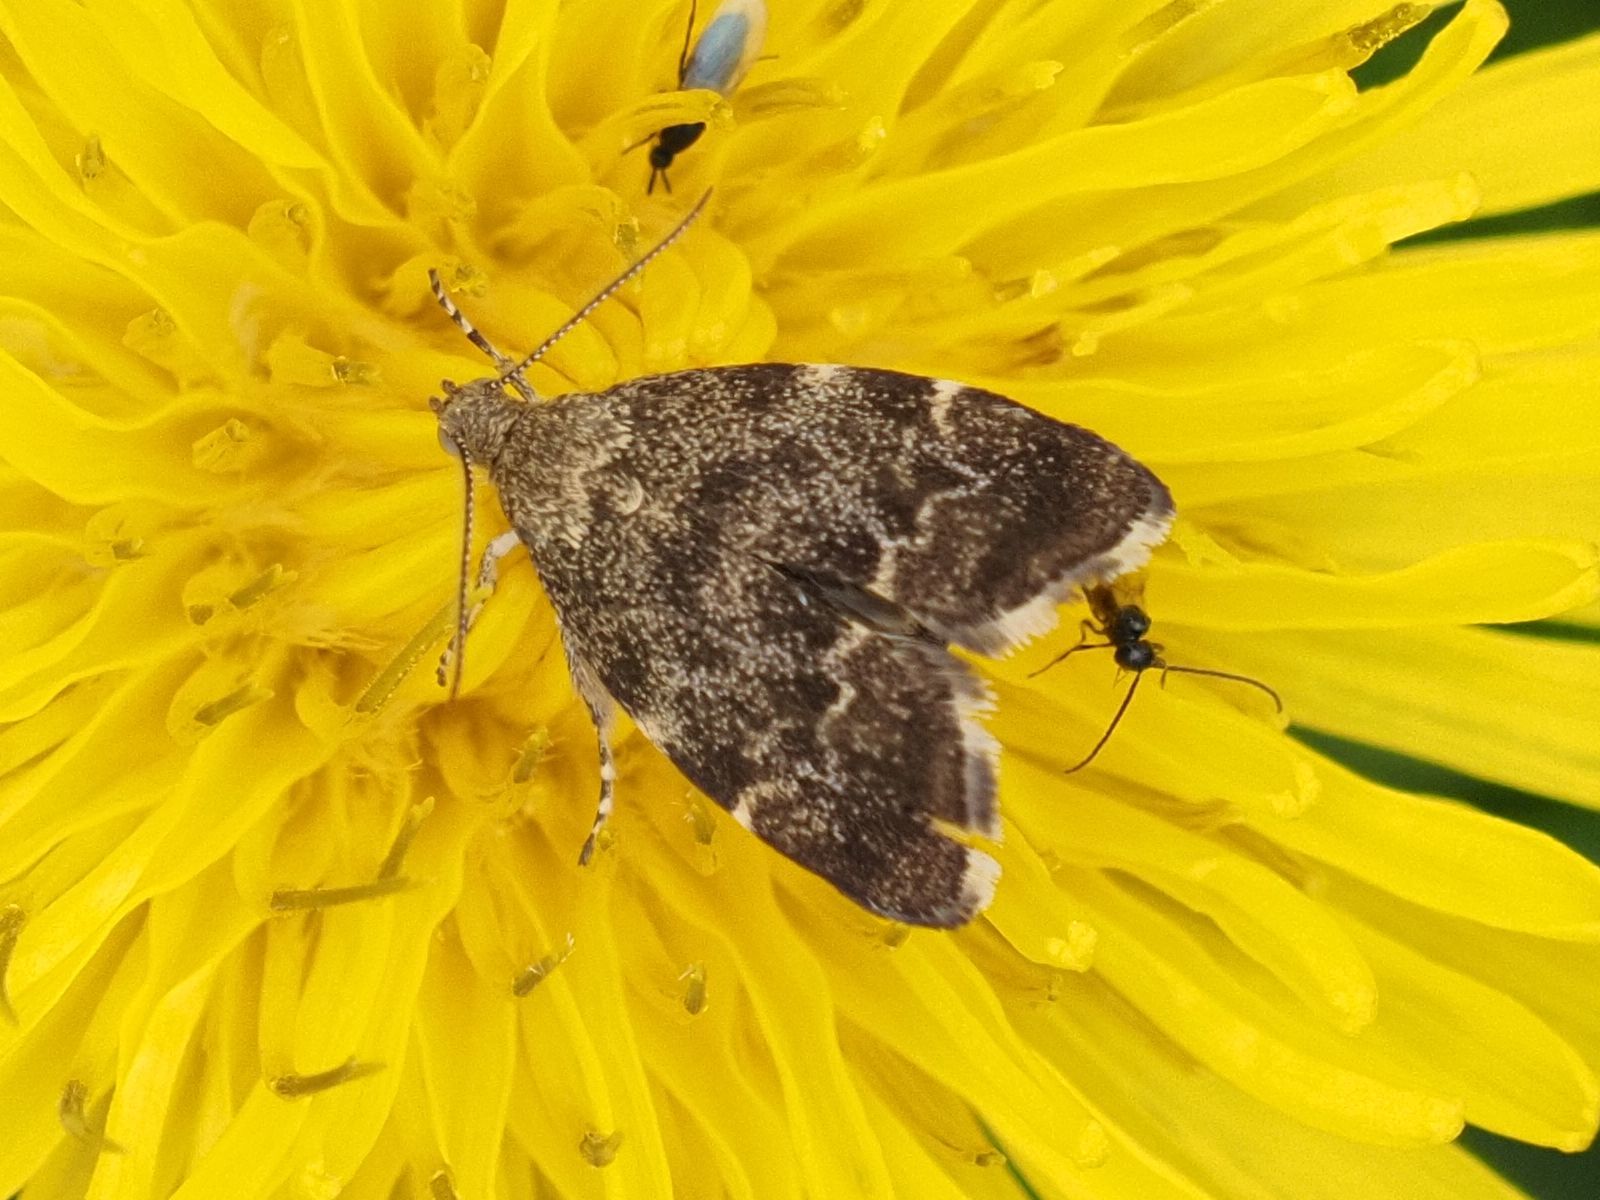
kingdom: Animalia
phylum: Arthropoda
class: Insecta
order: Lepidoptera
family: Choreutidae
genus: Anthophila
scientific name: Anthophila fabriciana
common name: Nettle-tap
